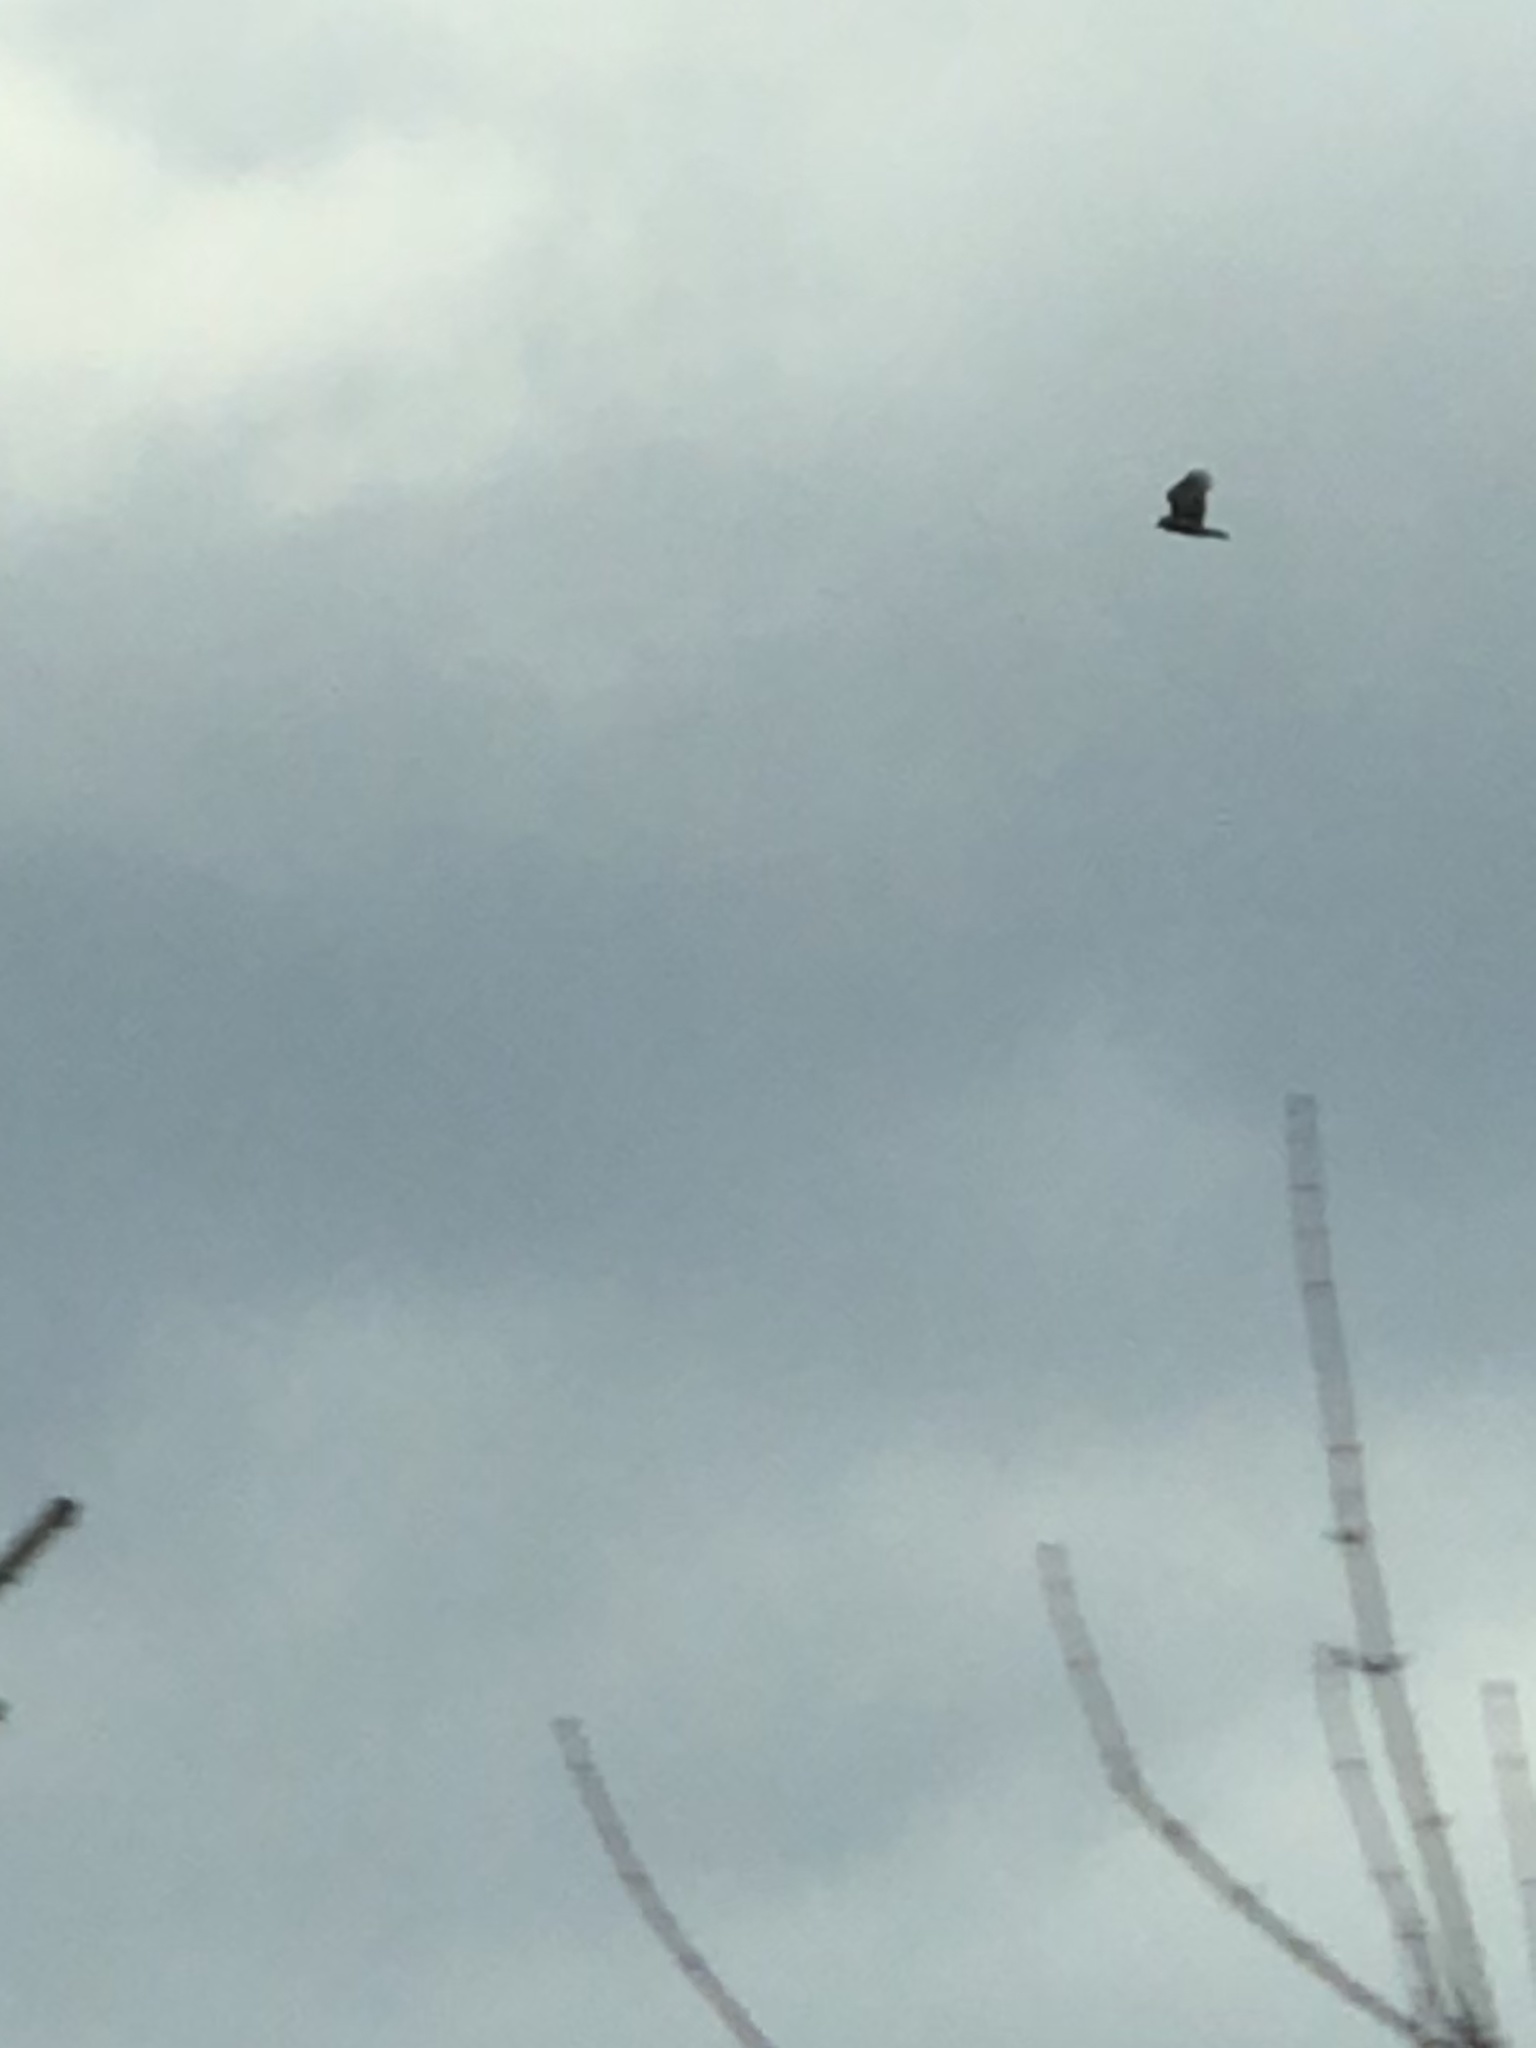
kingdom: Animalia
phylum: Chordata
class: Aves
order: Accipitriformes
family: Cathartidae
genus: Cathartes
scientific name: Cathartes aura
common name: Turkey vulture
